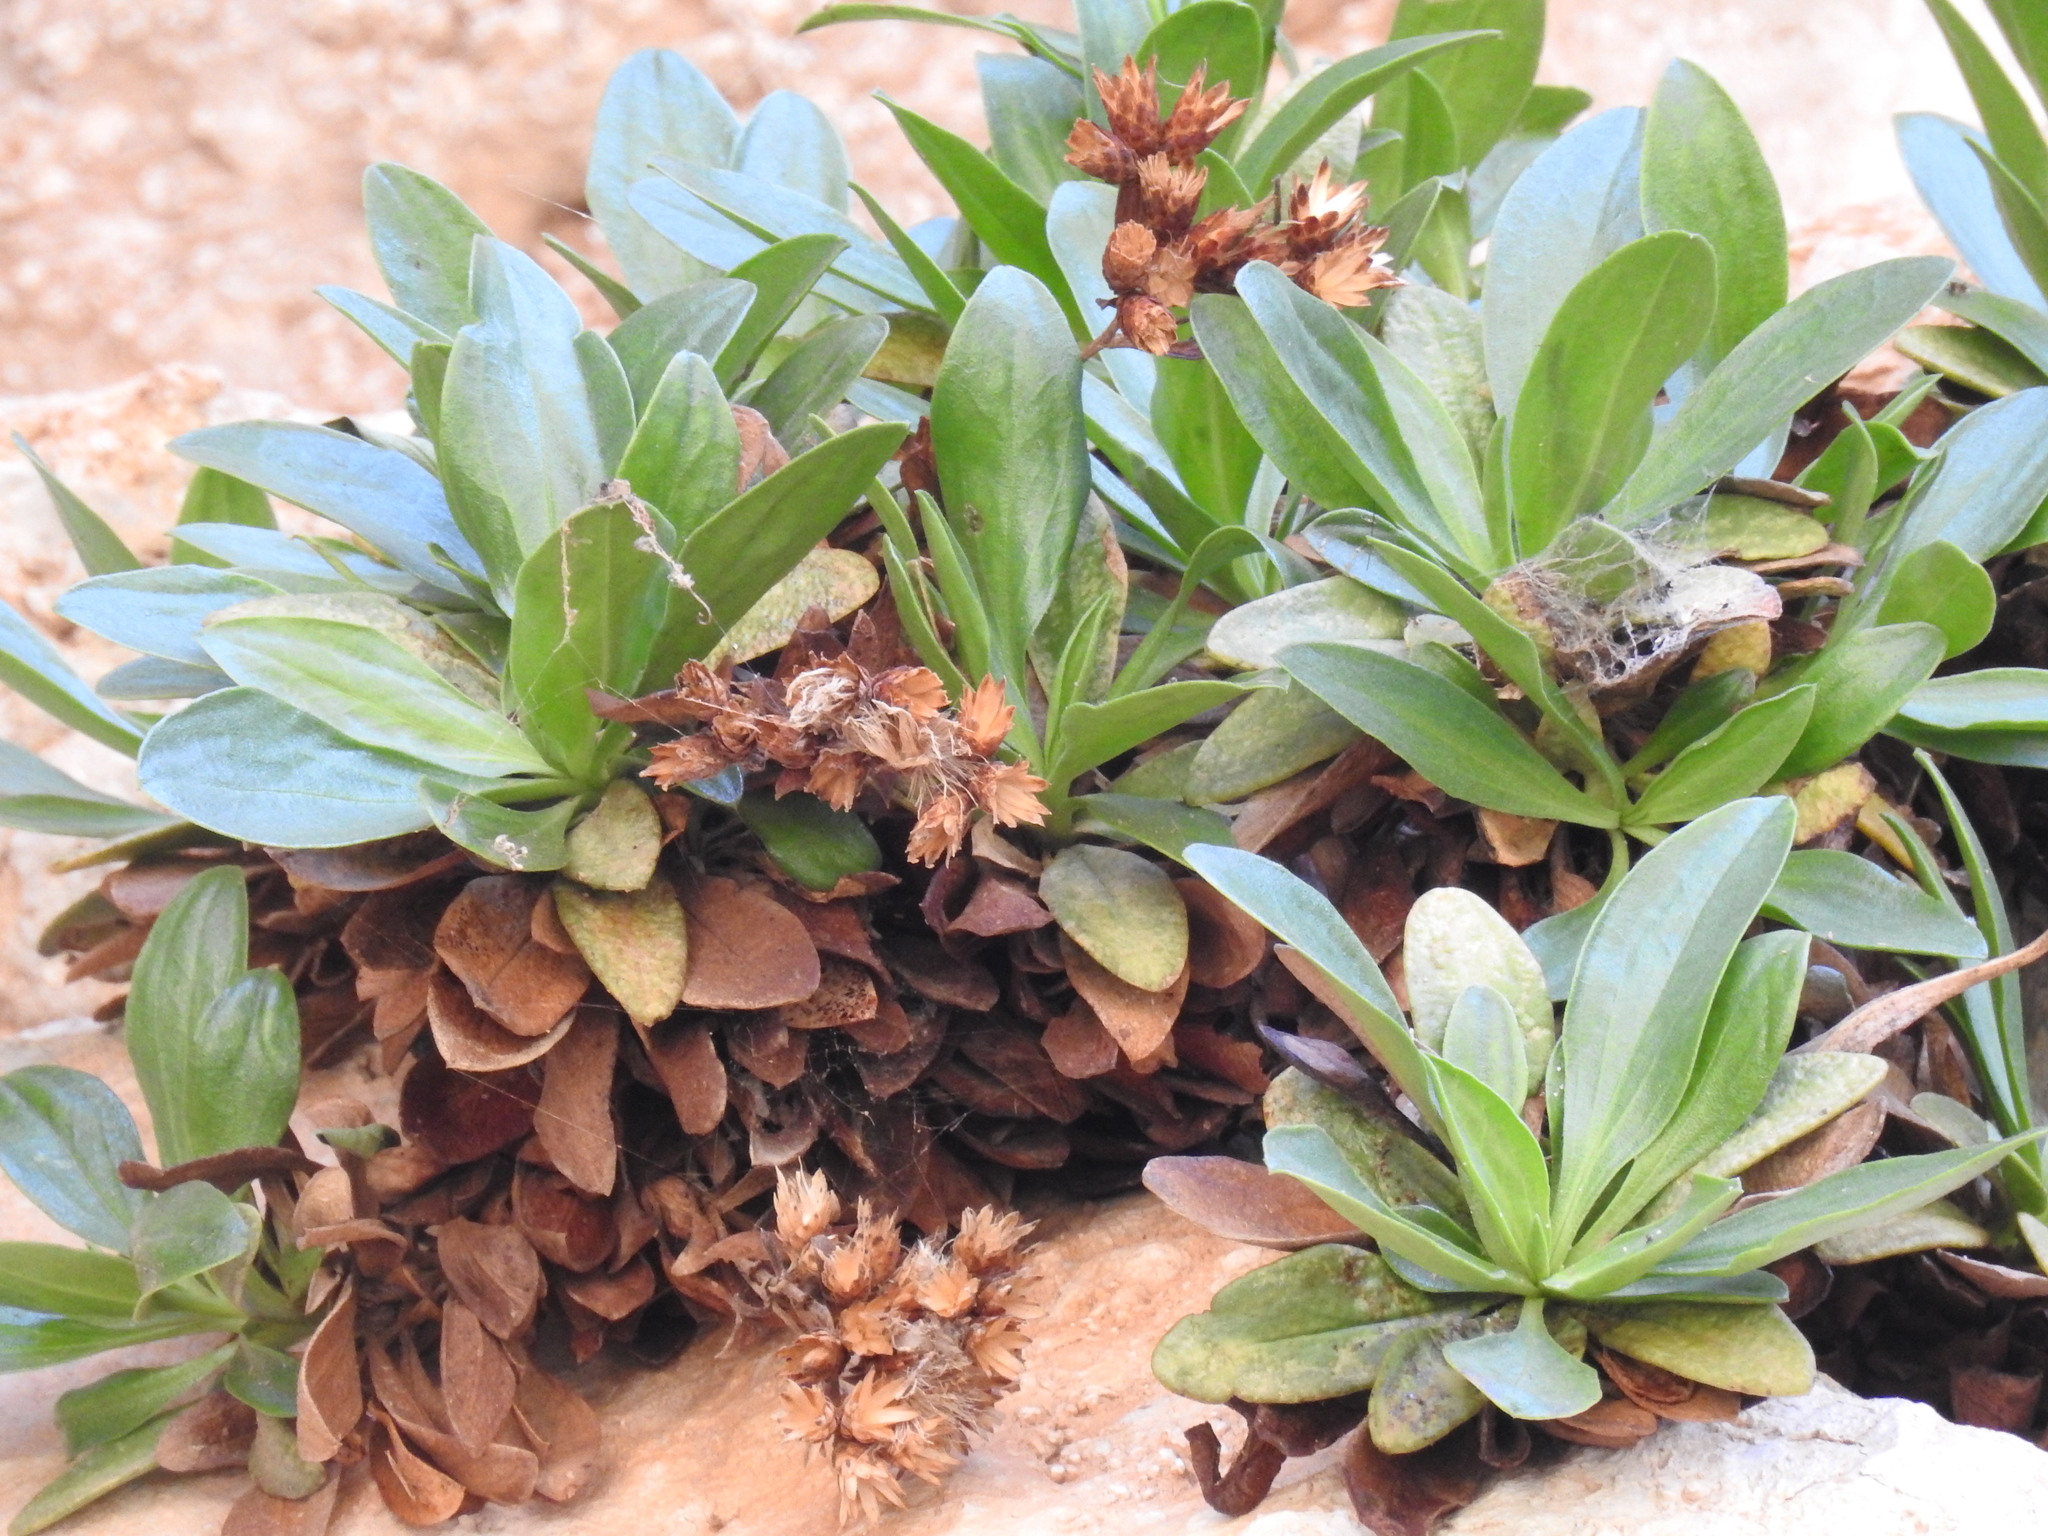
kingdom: Plantae
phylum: Tracheophyta
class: Magnoliopsida
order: Asterales
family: Asteraceae
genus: Hirtellina
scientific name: Hirtellina fruticosa
